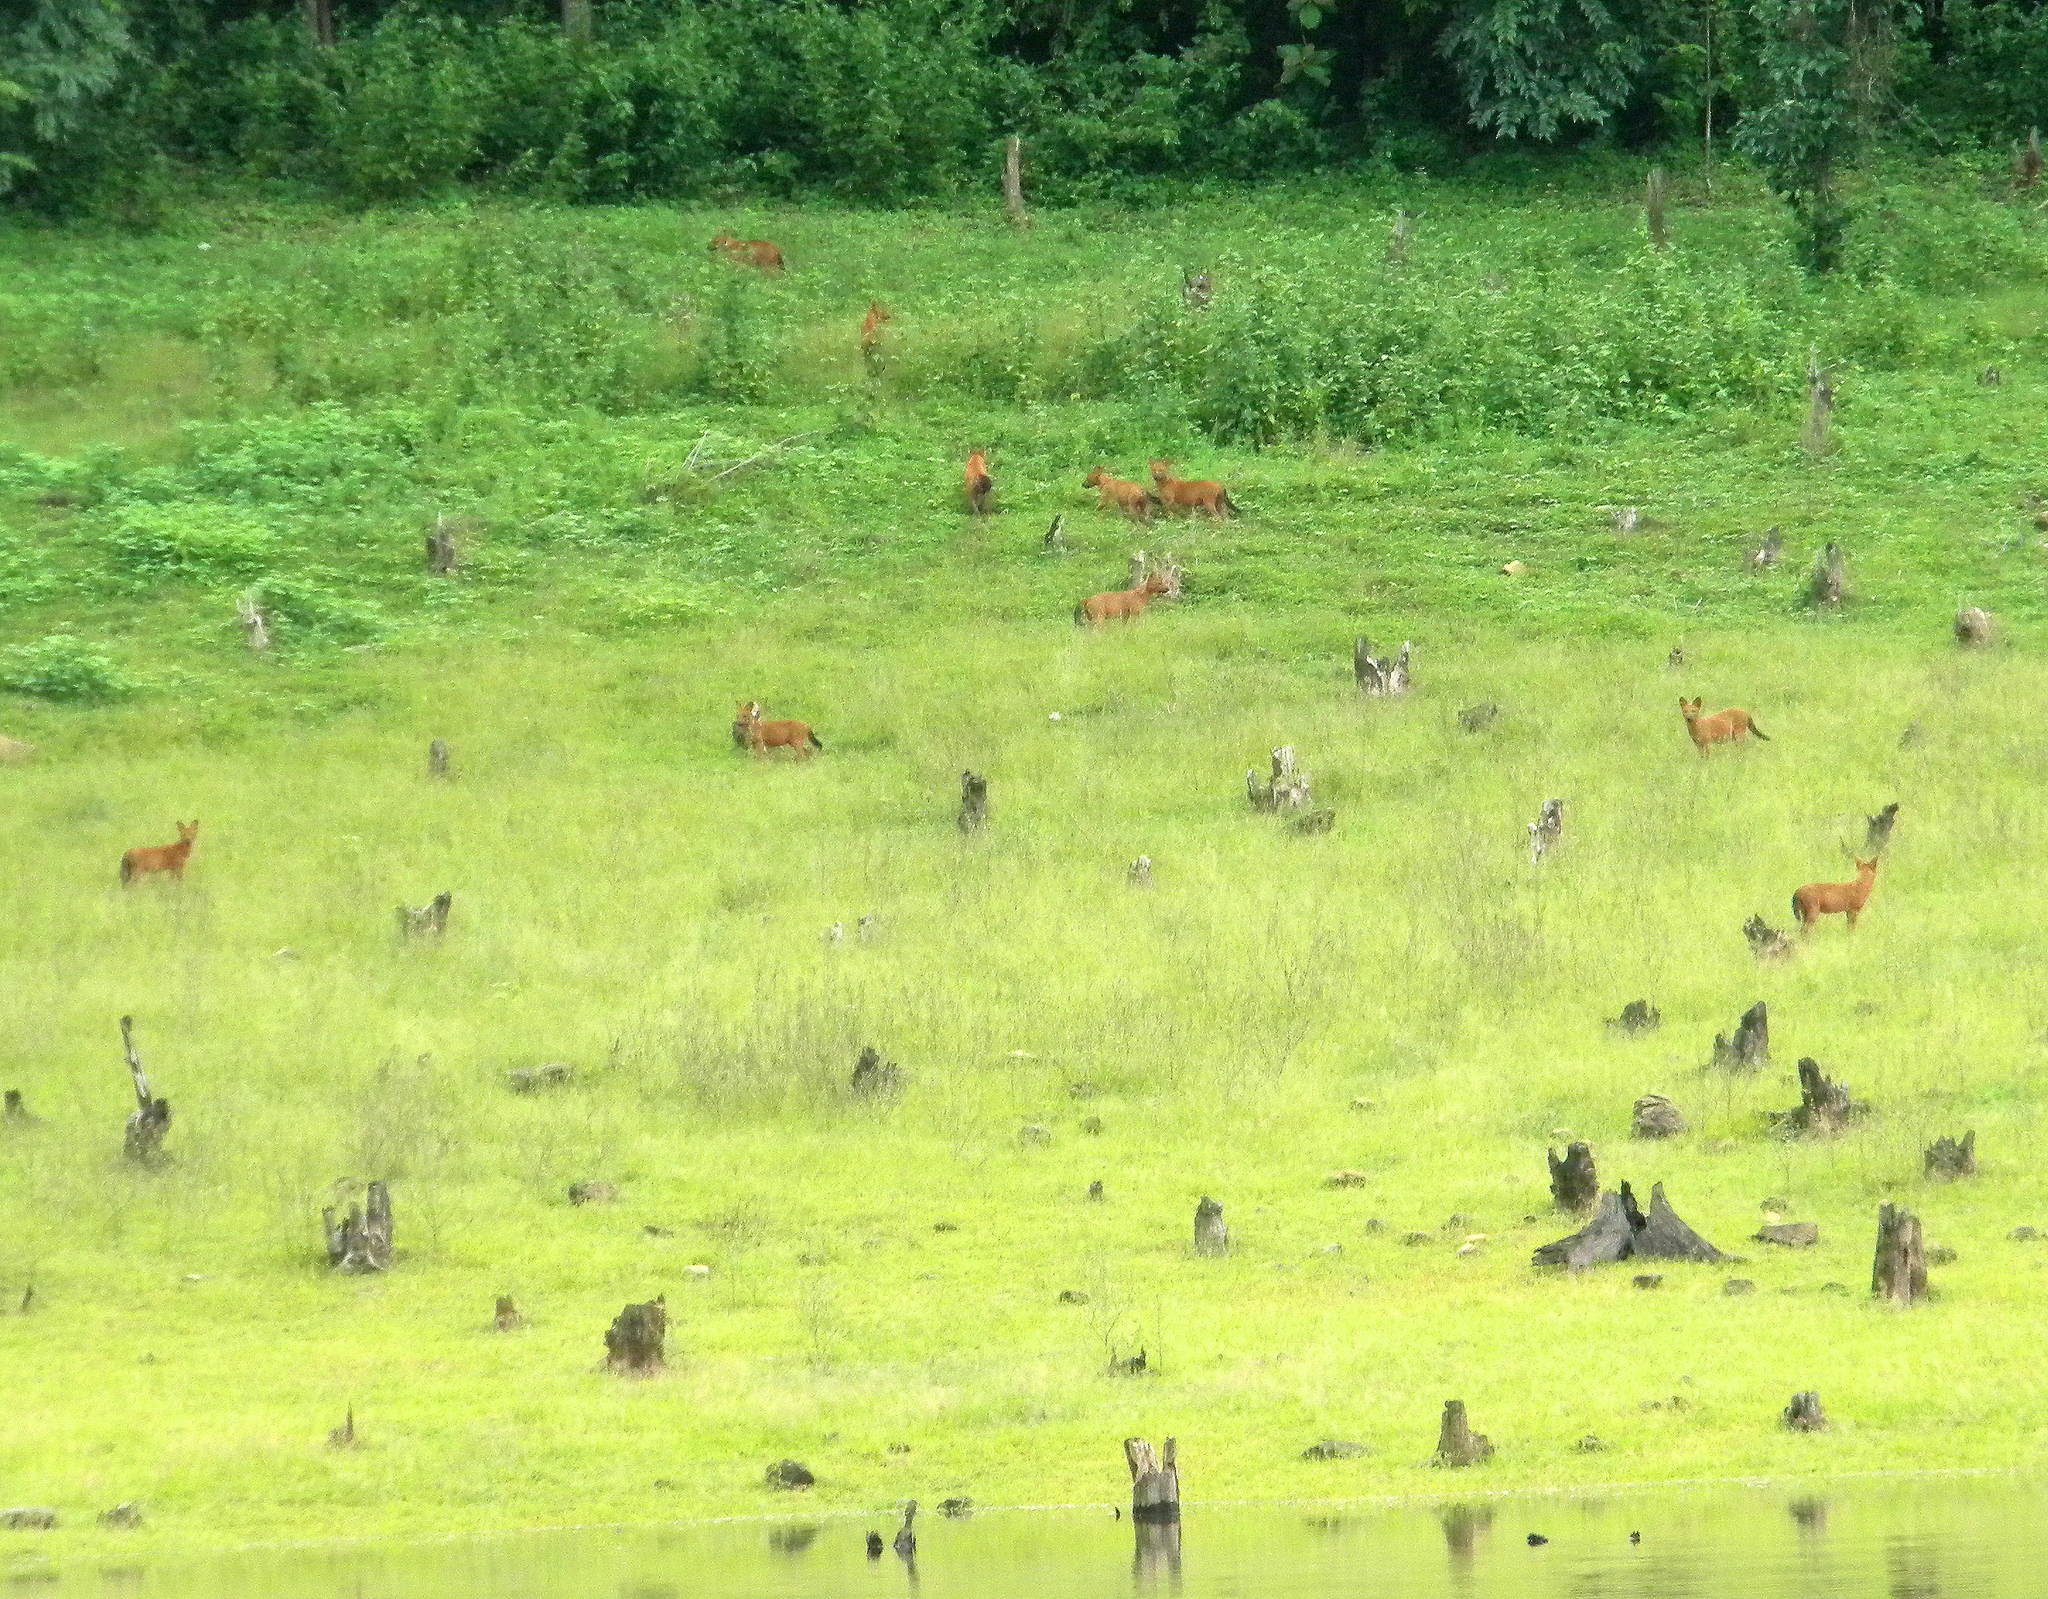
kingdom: Animalia
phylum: Chordata
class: Mammalia
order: Carnivora
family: Canidae
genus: Cuon
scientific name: Cuon alpinus
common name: Dhole
